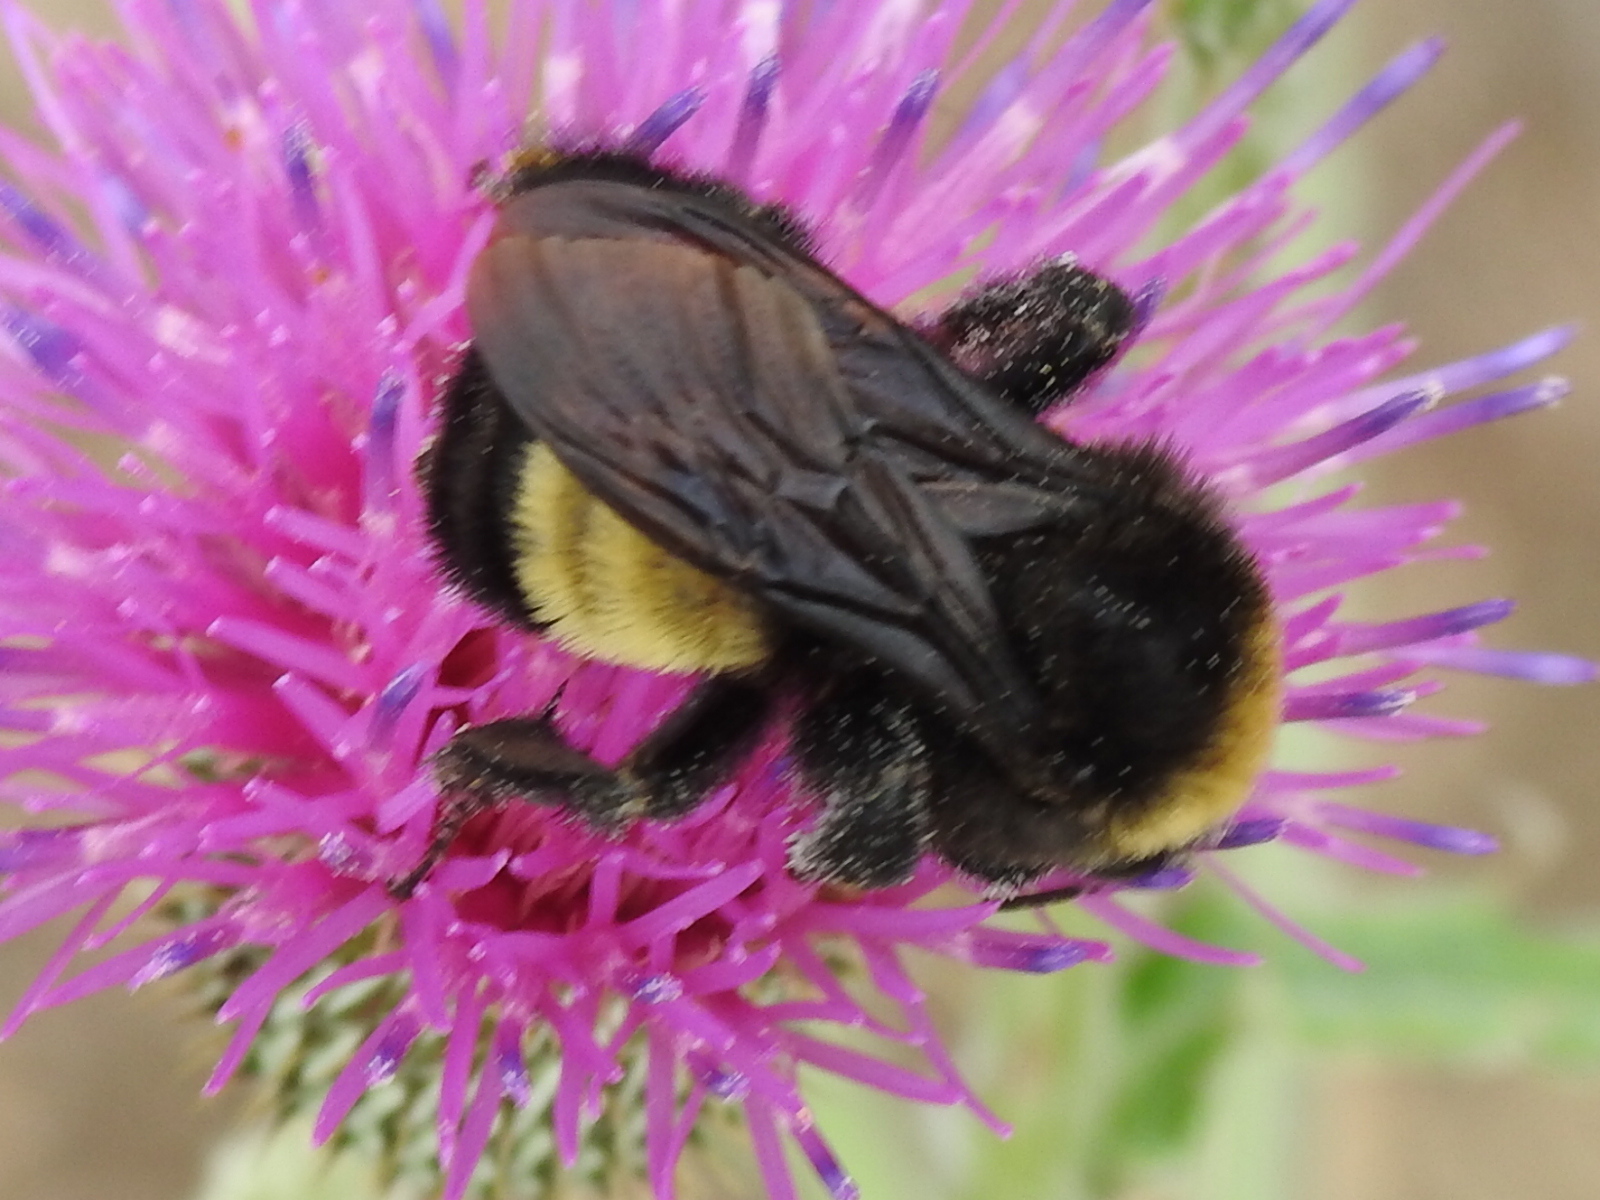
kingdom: Animalia
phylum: Arthropoda
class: Insecta
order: Hymenoptera
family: Apidae
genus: Bombus
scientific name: Bombus pensylvanicus
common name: Bumble bee
